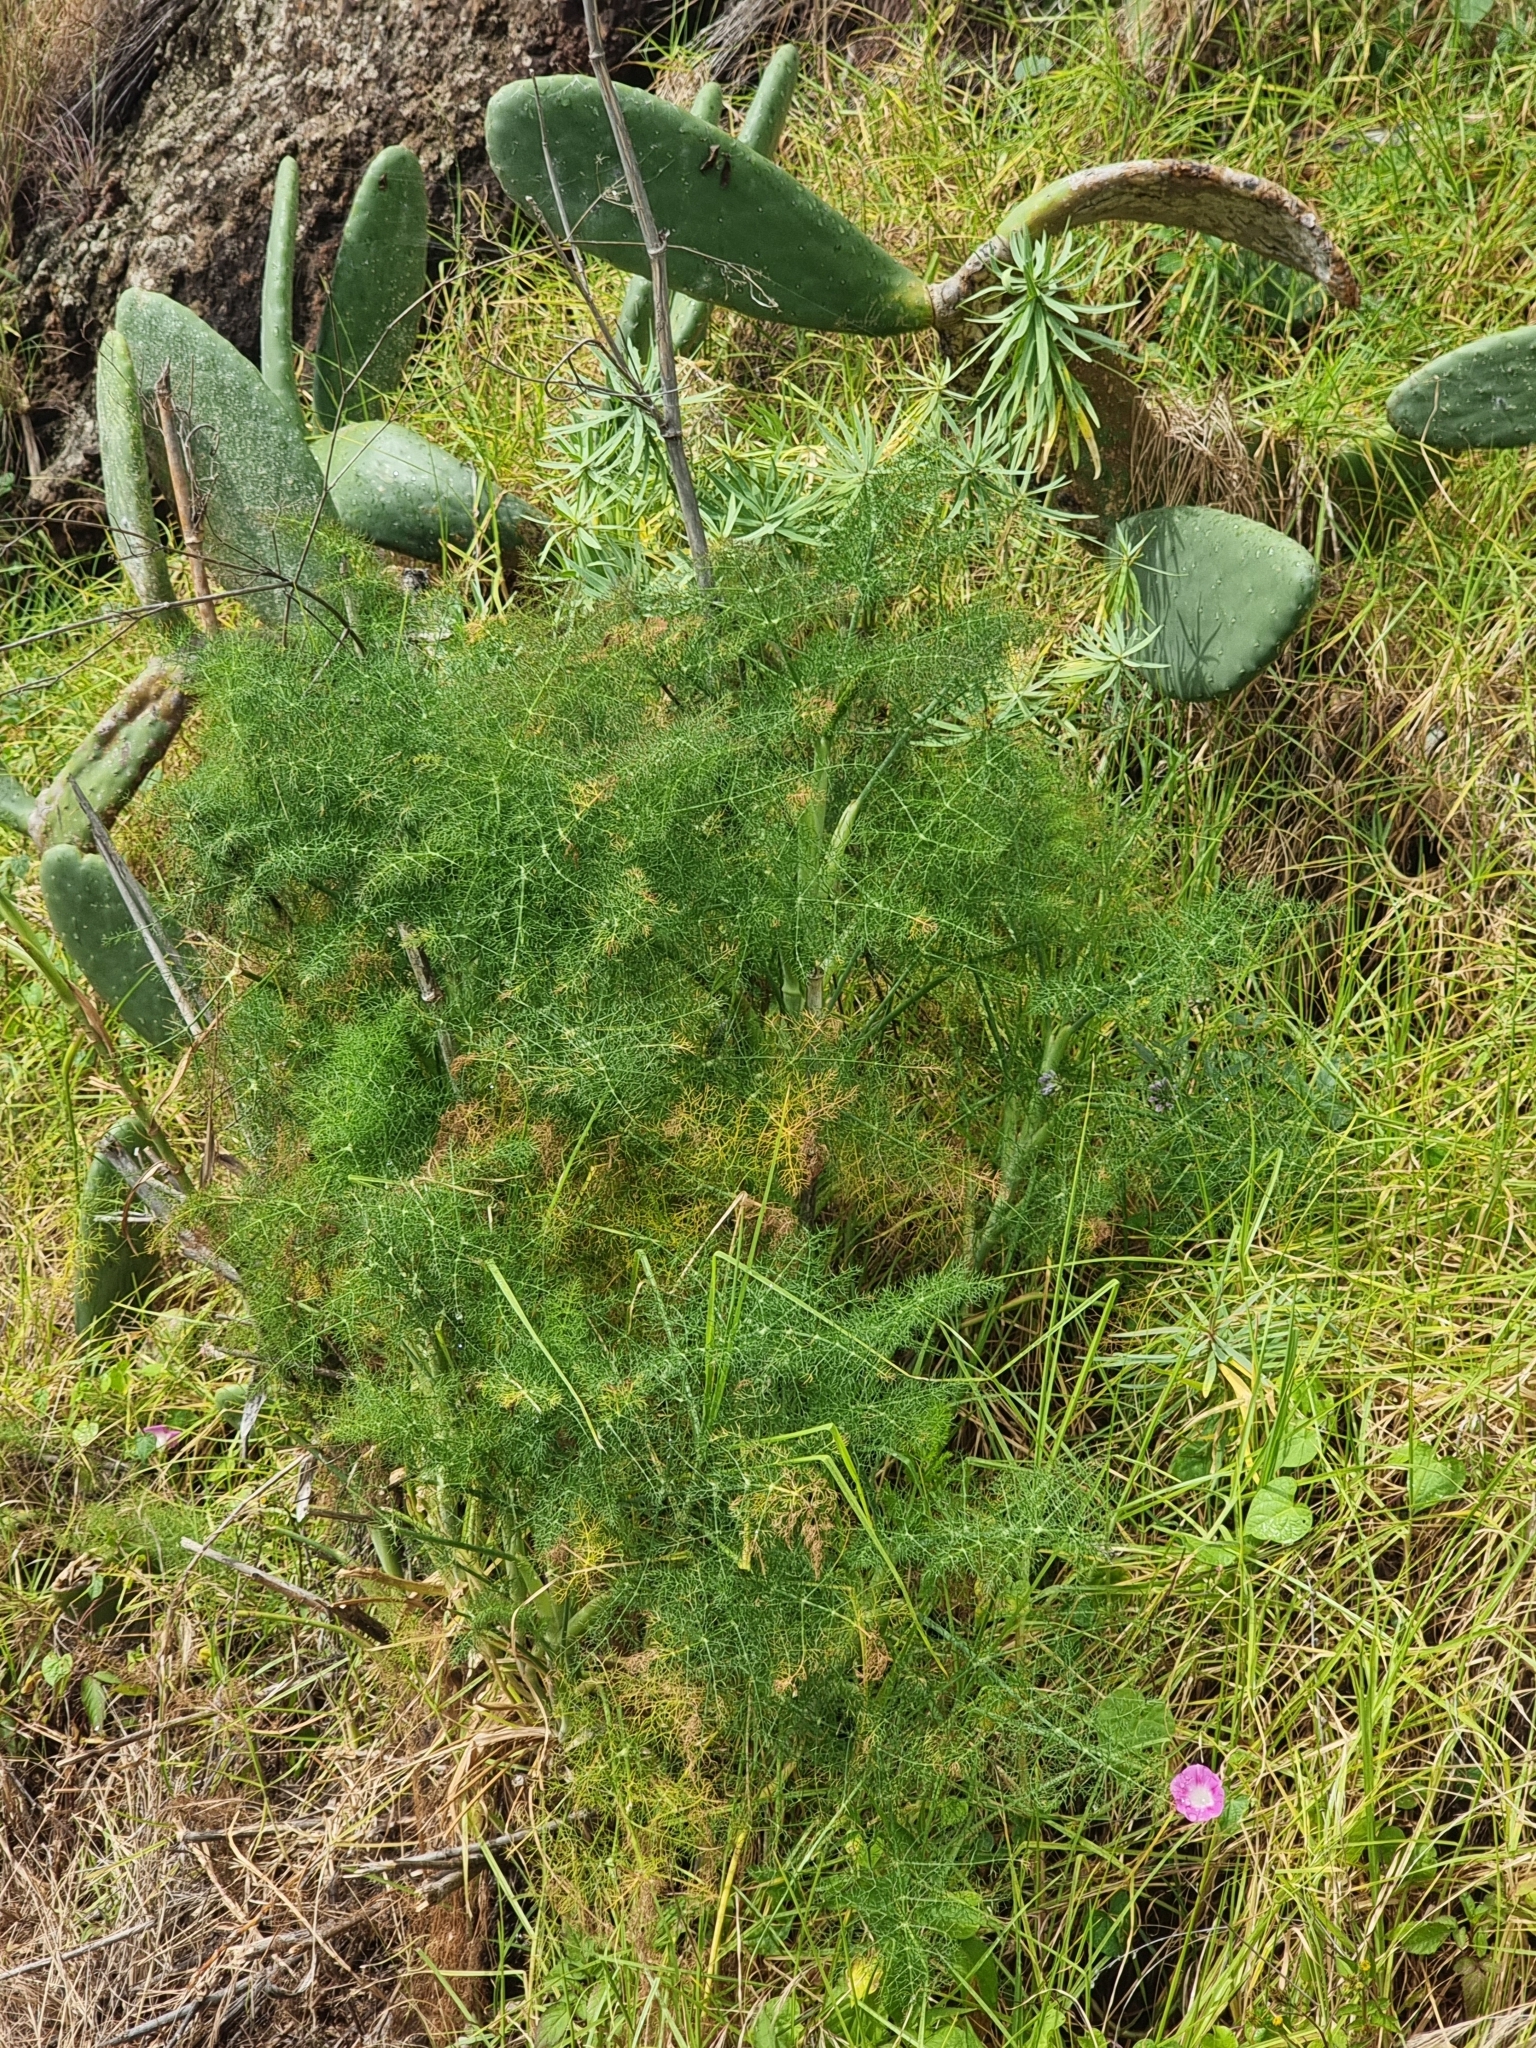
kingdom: Plantae
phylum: Tracheophyta
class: Magnoliopsida
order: Apiales
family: Apiaceae
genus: Foeniculum
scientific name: Foeniculum vulgare
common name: Fennel
